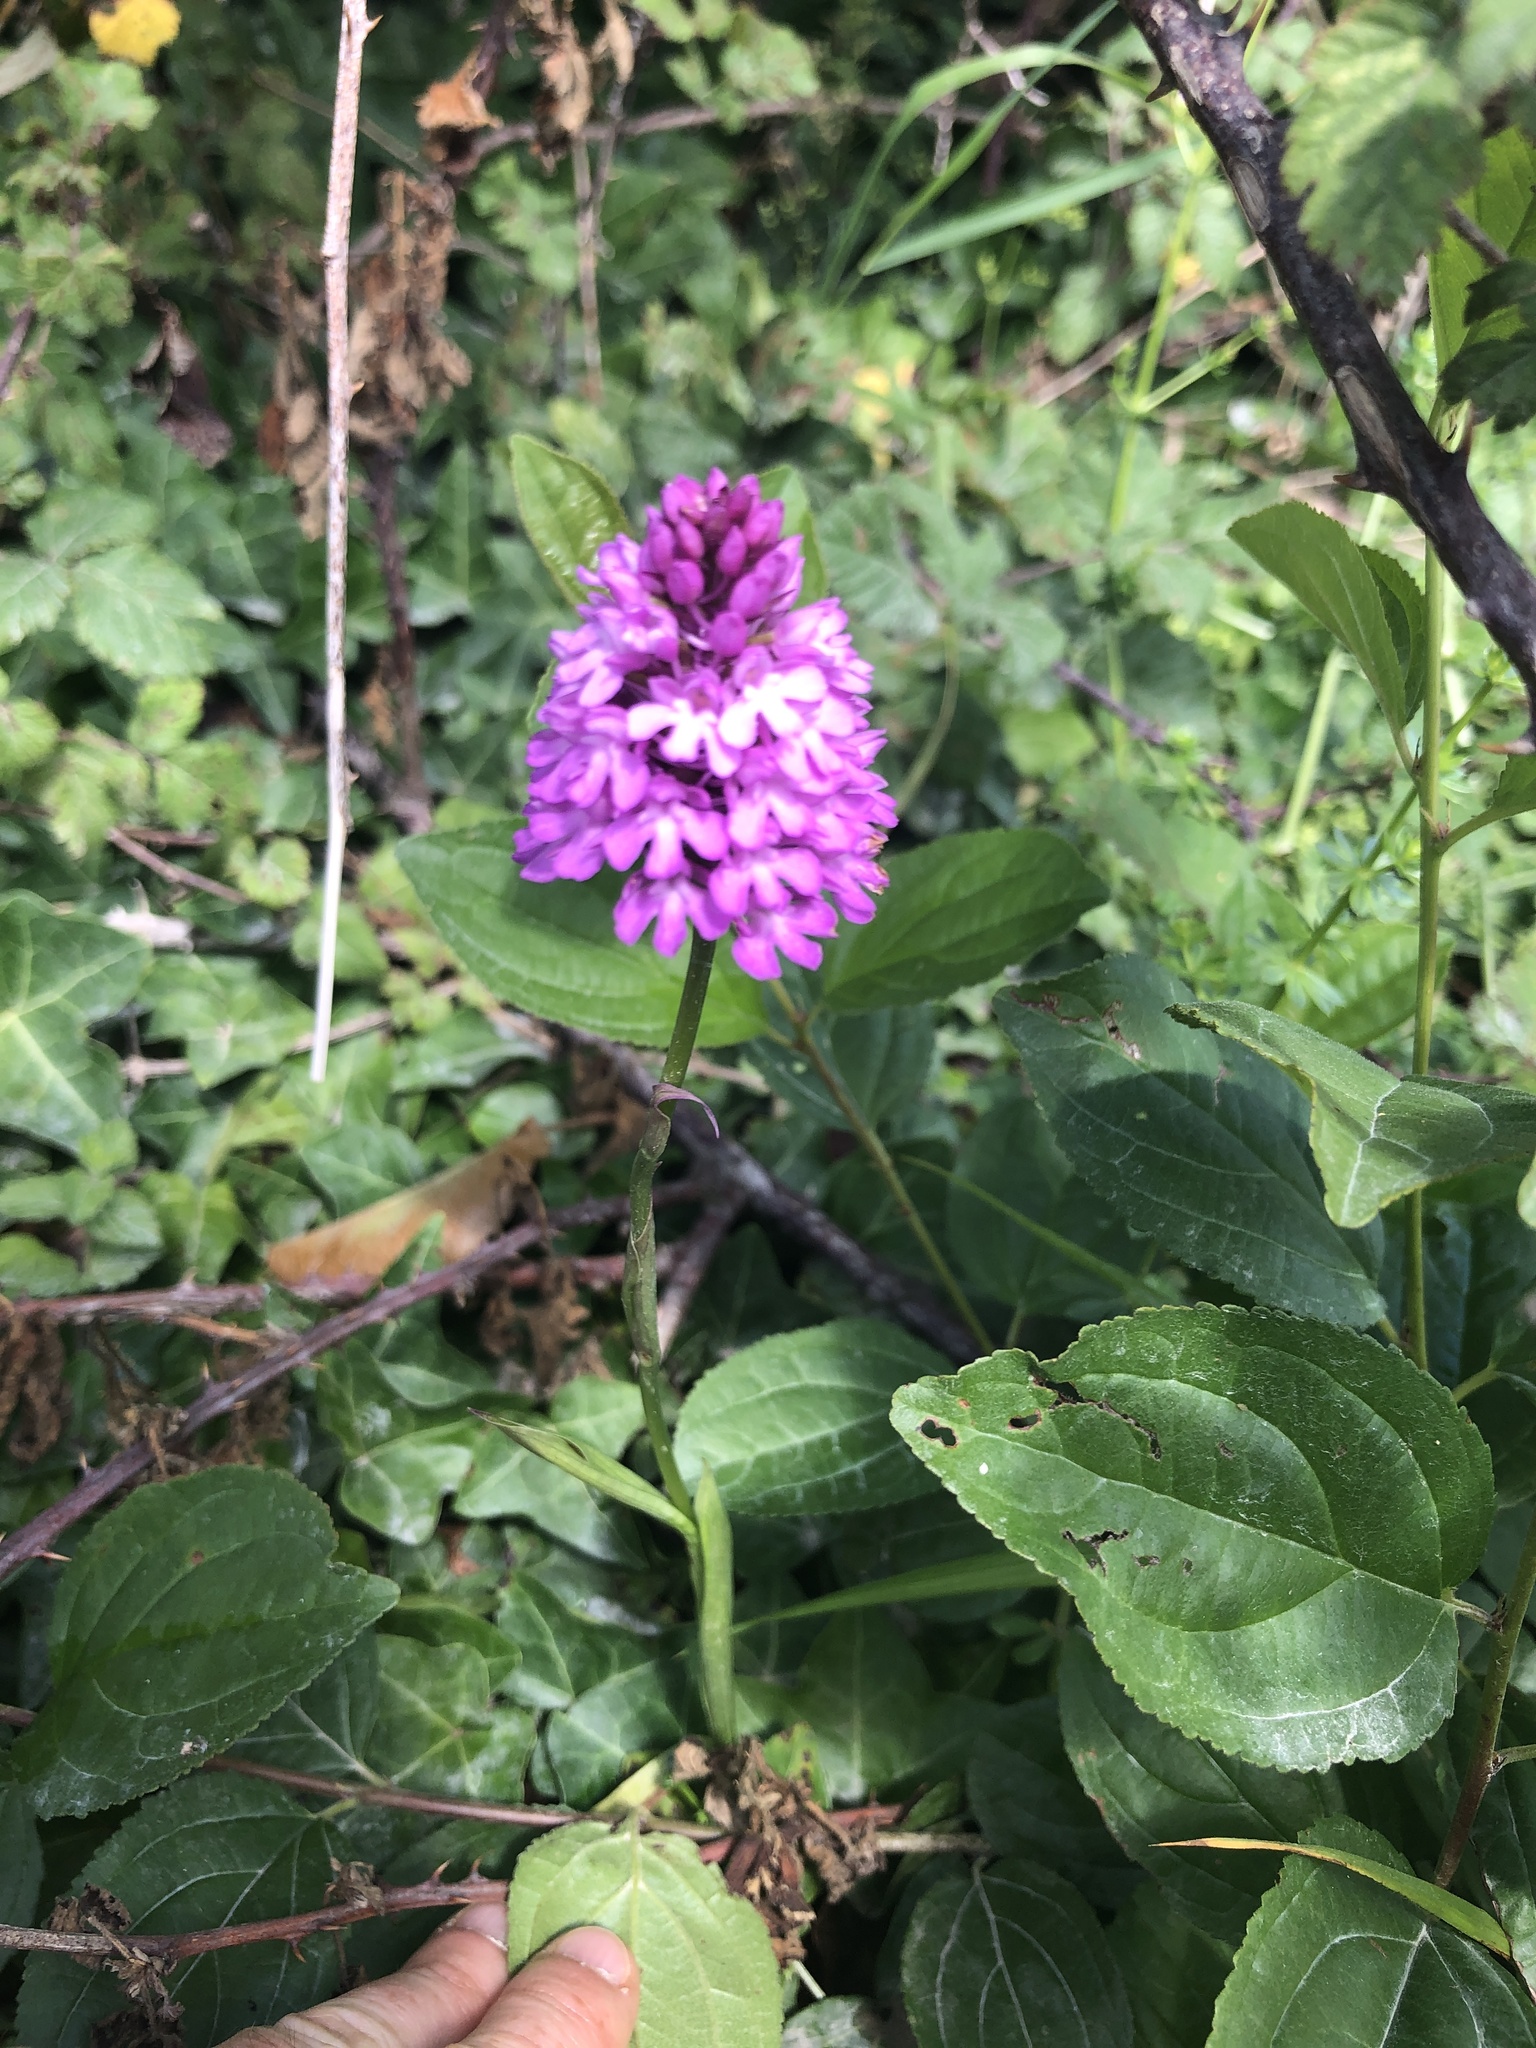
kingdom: Plantae
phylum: Tracheophyta
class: Liliopsida
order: Asparagales
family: Orchidaceae
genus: Anacamptis
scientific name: Anacamptis pyramidalis
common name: Pyramidal orchid
